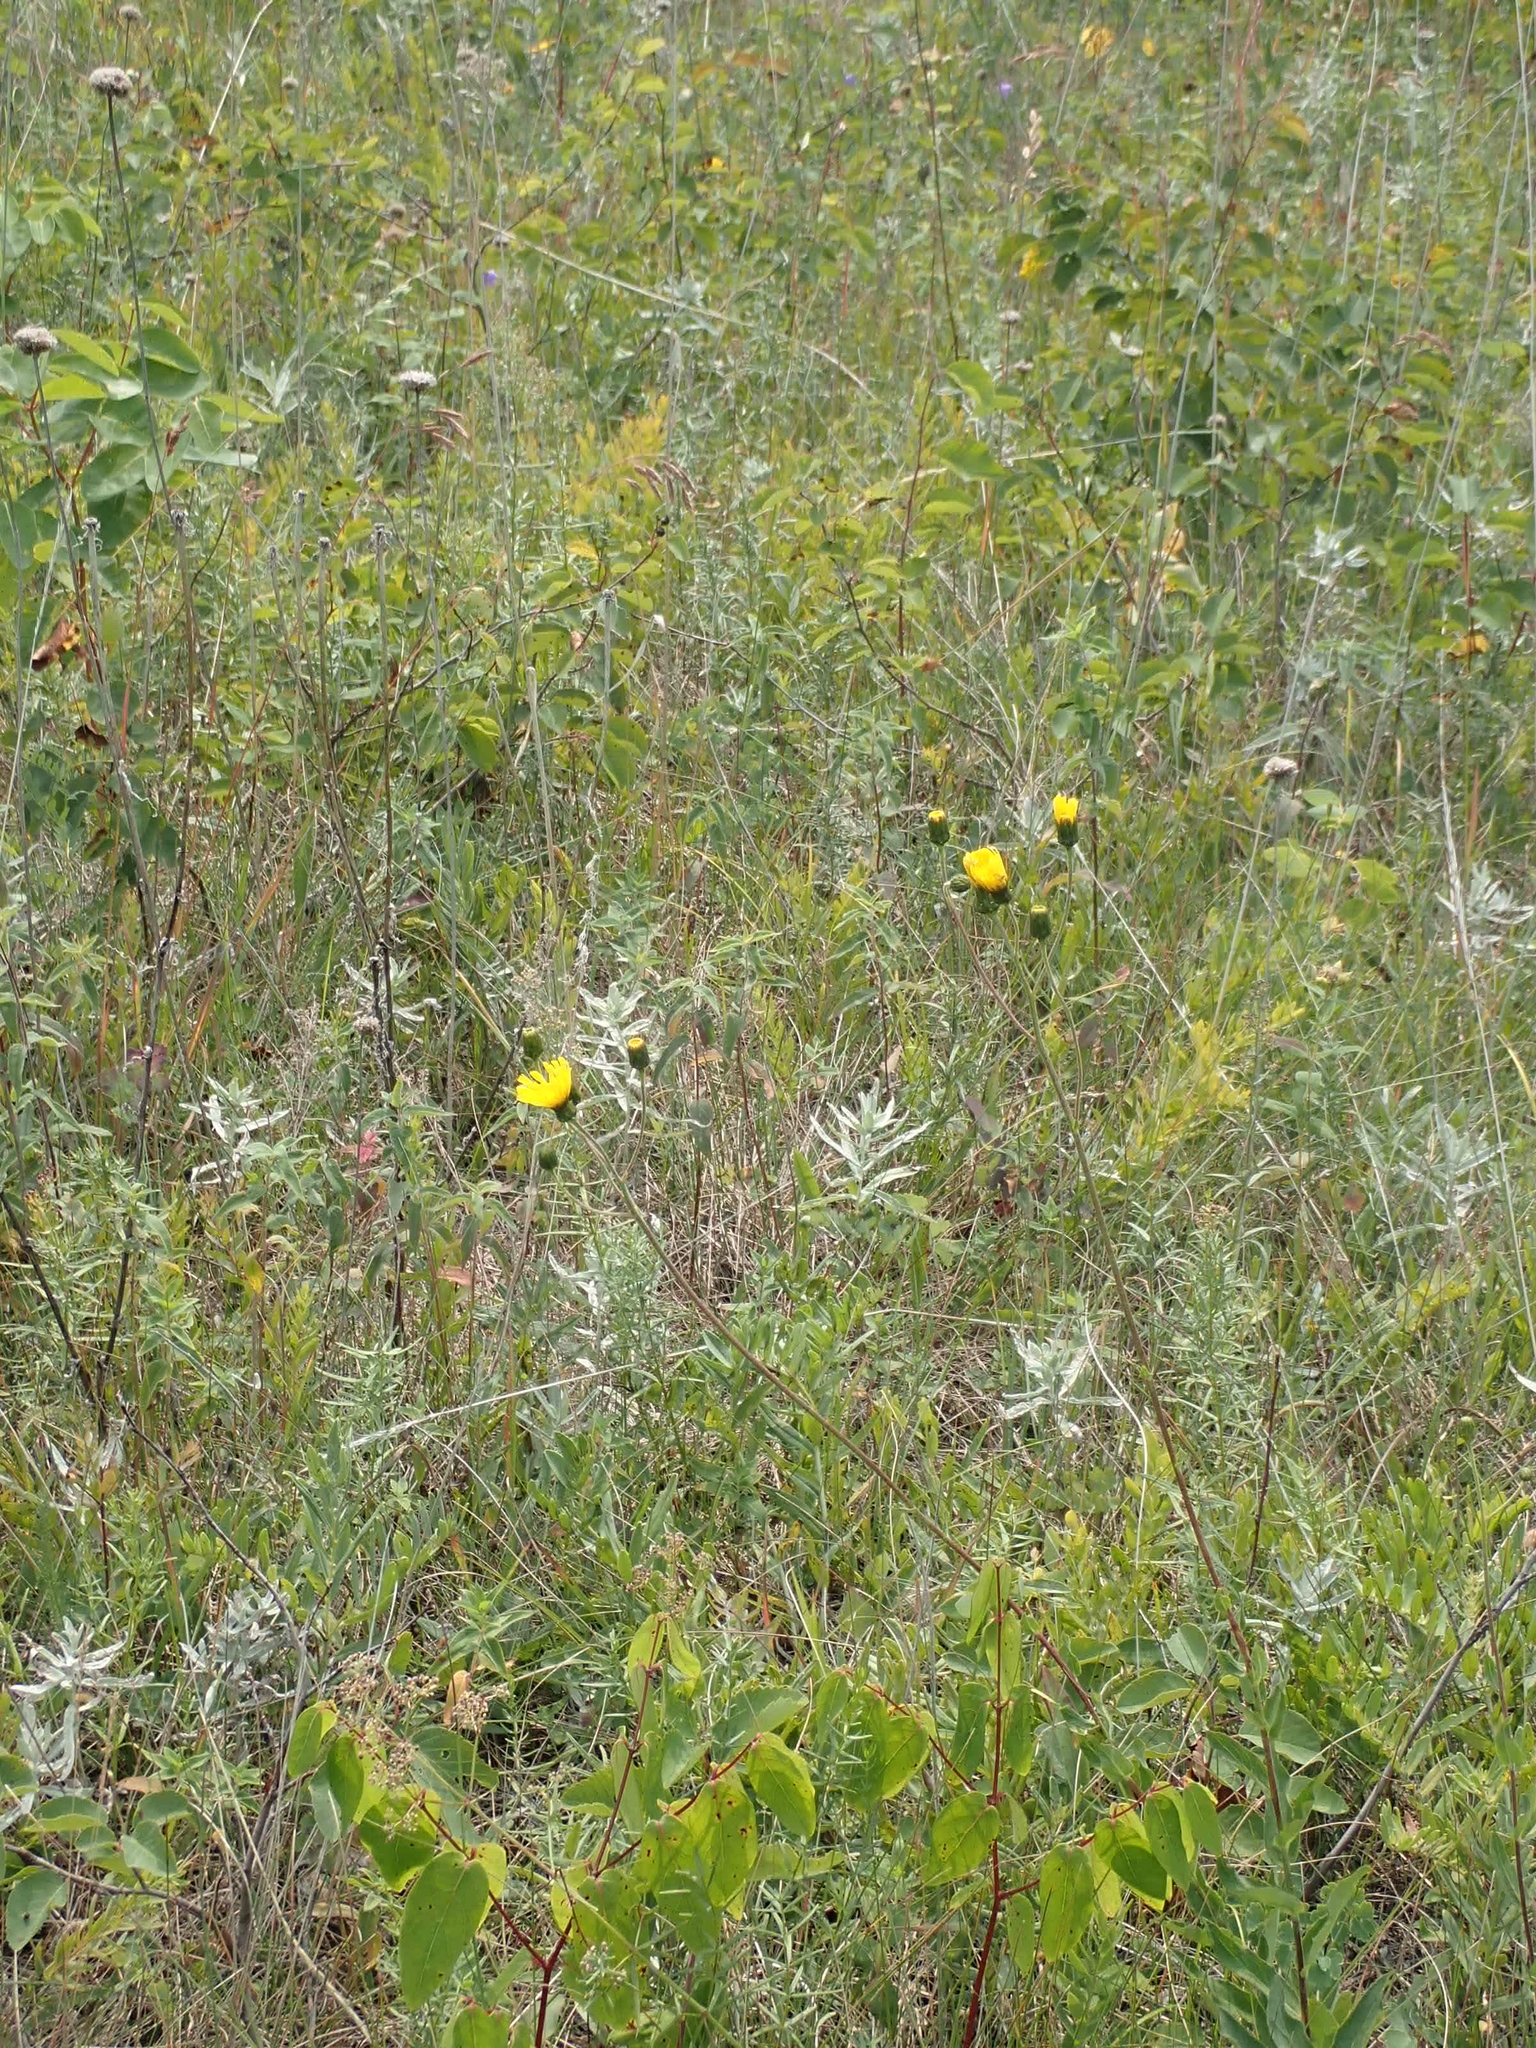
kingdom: Plantae
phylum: Tracheophyta
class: Magnoliopsida
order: Asterales
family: Asteraceae
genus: Hieracium
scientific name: Hieracium umbellatum
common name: Northern hawkweed
